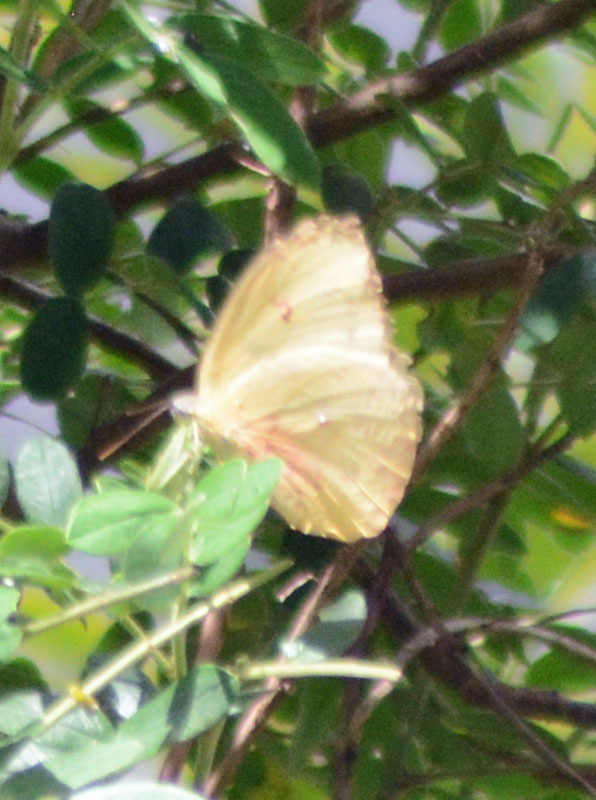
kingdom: Animalia
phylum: Arthropoda
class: Insecta
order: Lepidoptera
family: Pieridae
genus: Phoebis
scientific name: Phoebis philea
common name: Orange-barred giant sulphur
